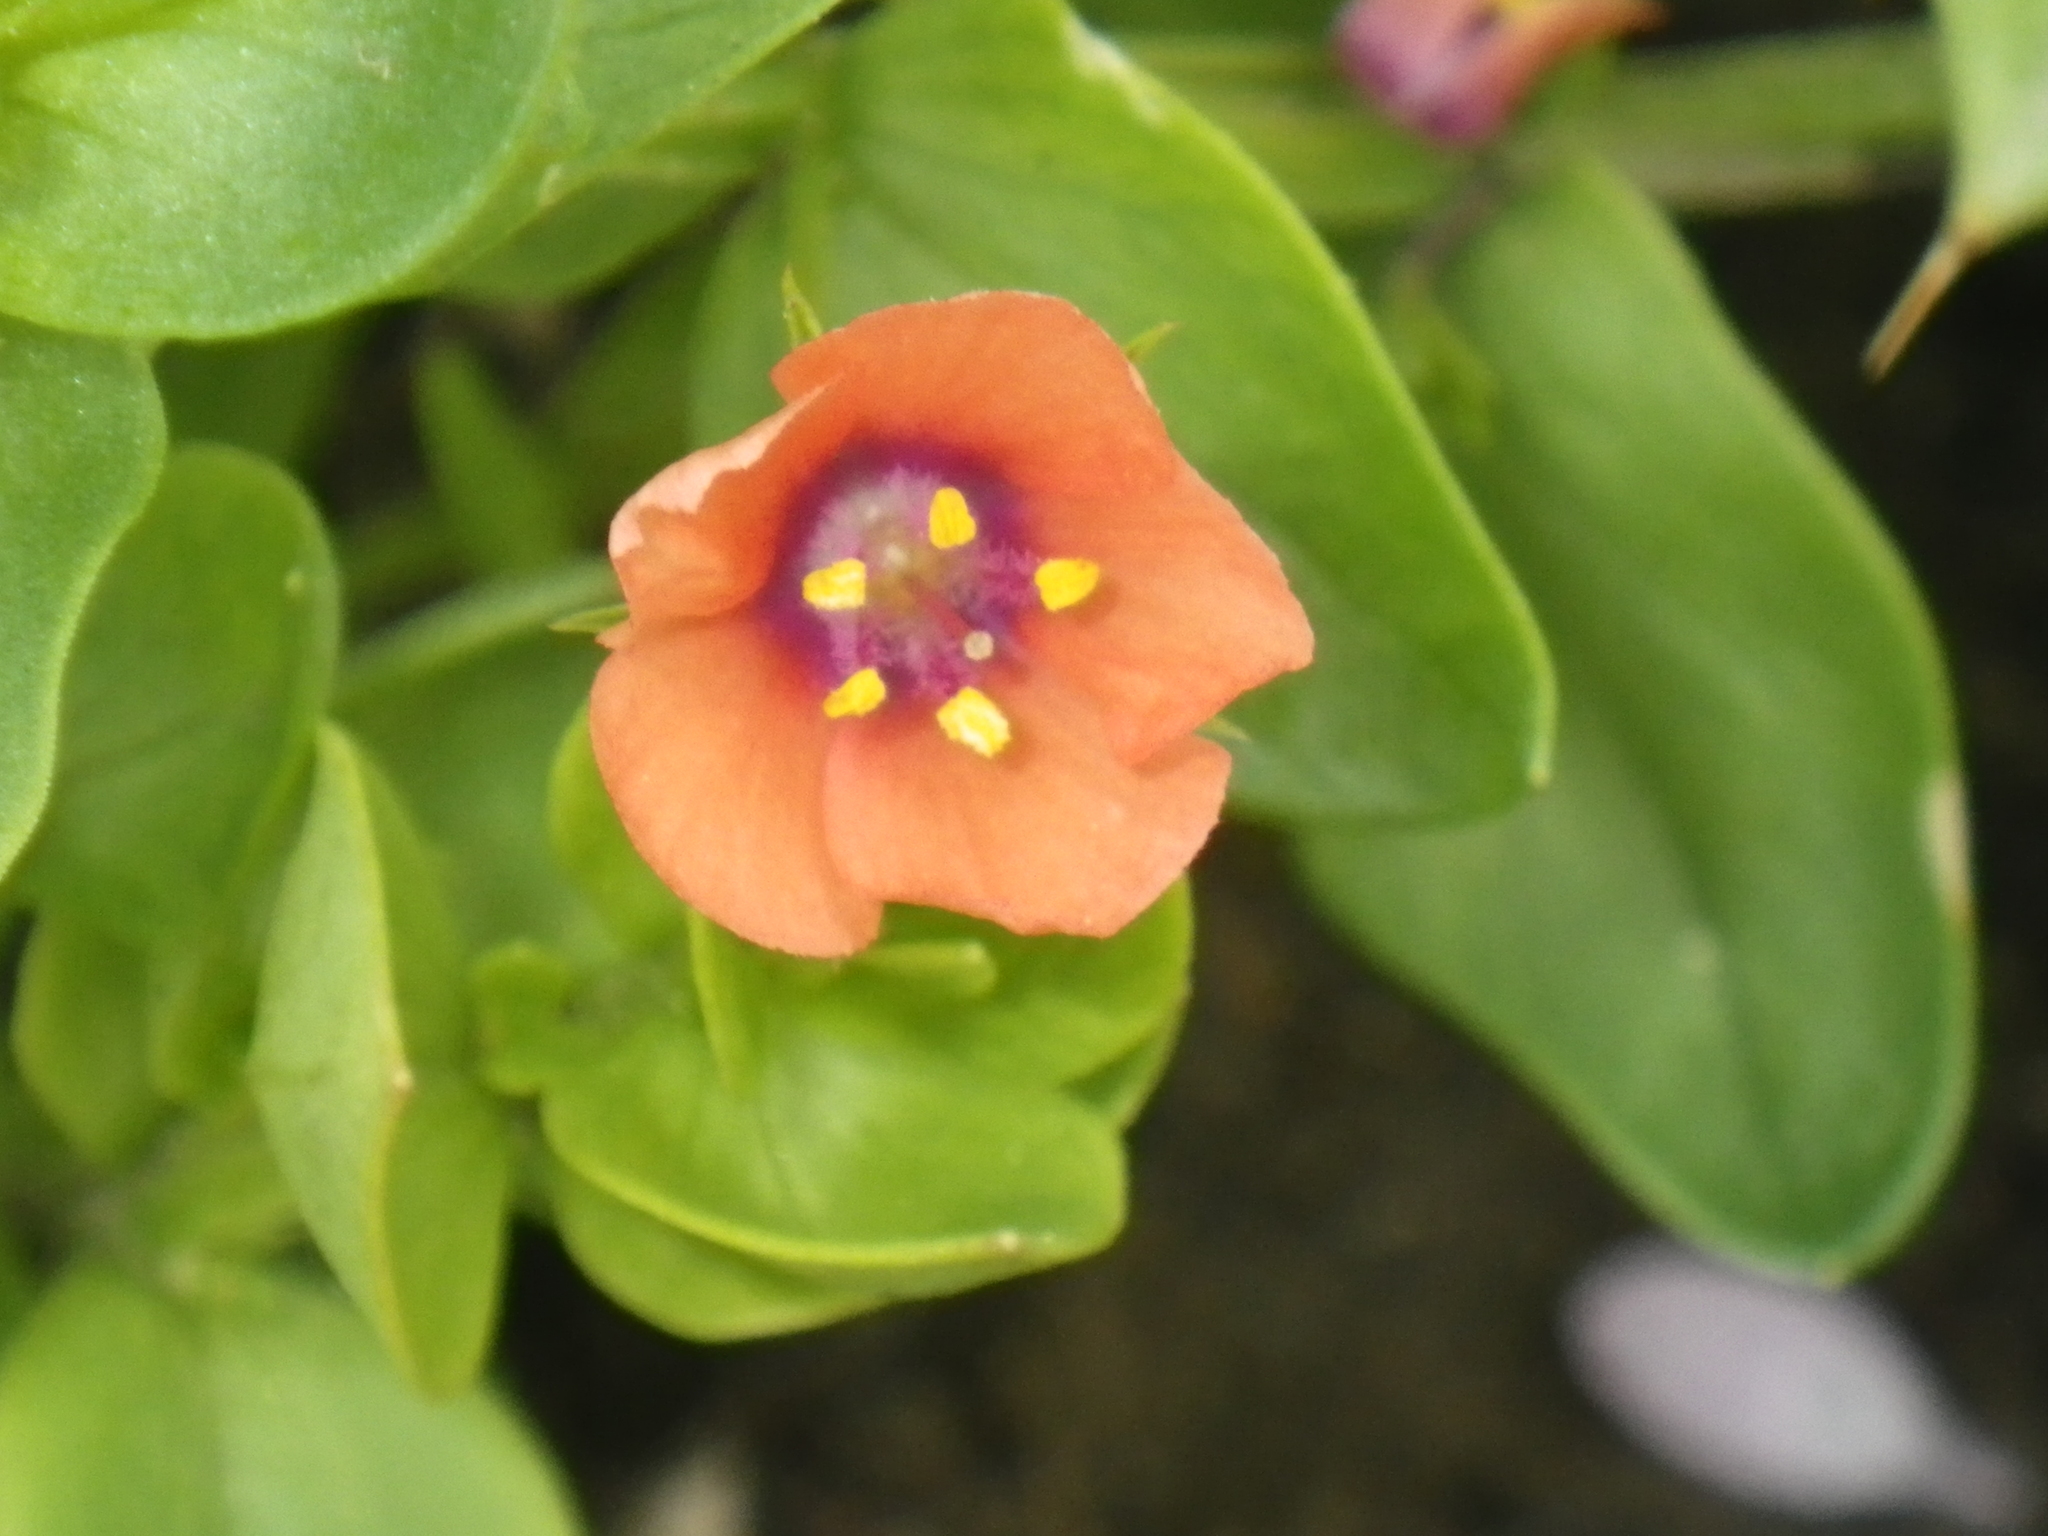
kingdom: Plantae
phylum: Tracheophyta
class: Magnoliopsida
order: Ericales
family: Primulaceae
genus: Lysimachia
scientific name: Lysimachia arvensis
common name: Scarlet pimpernel
